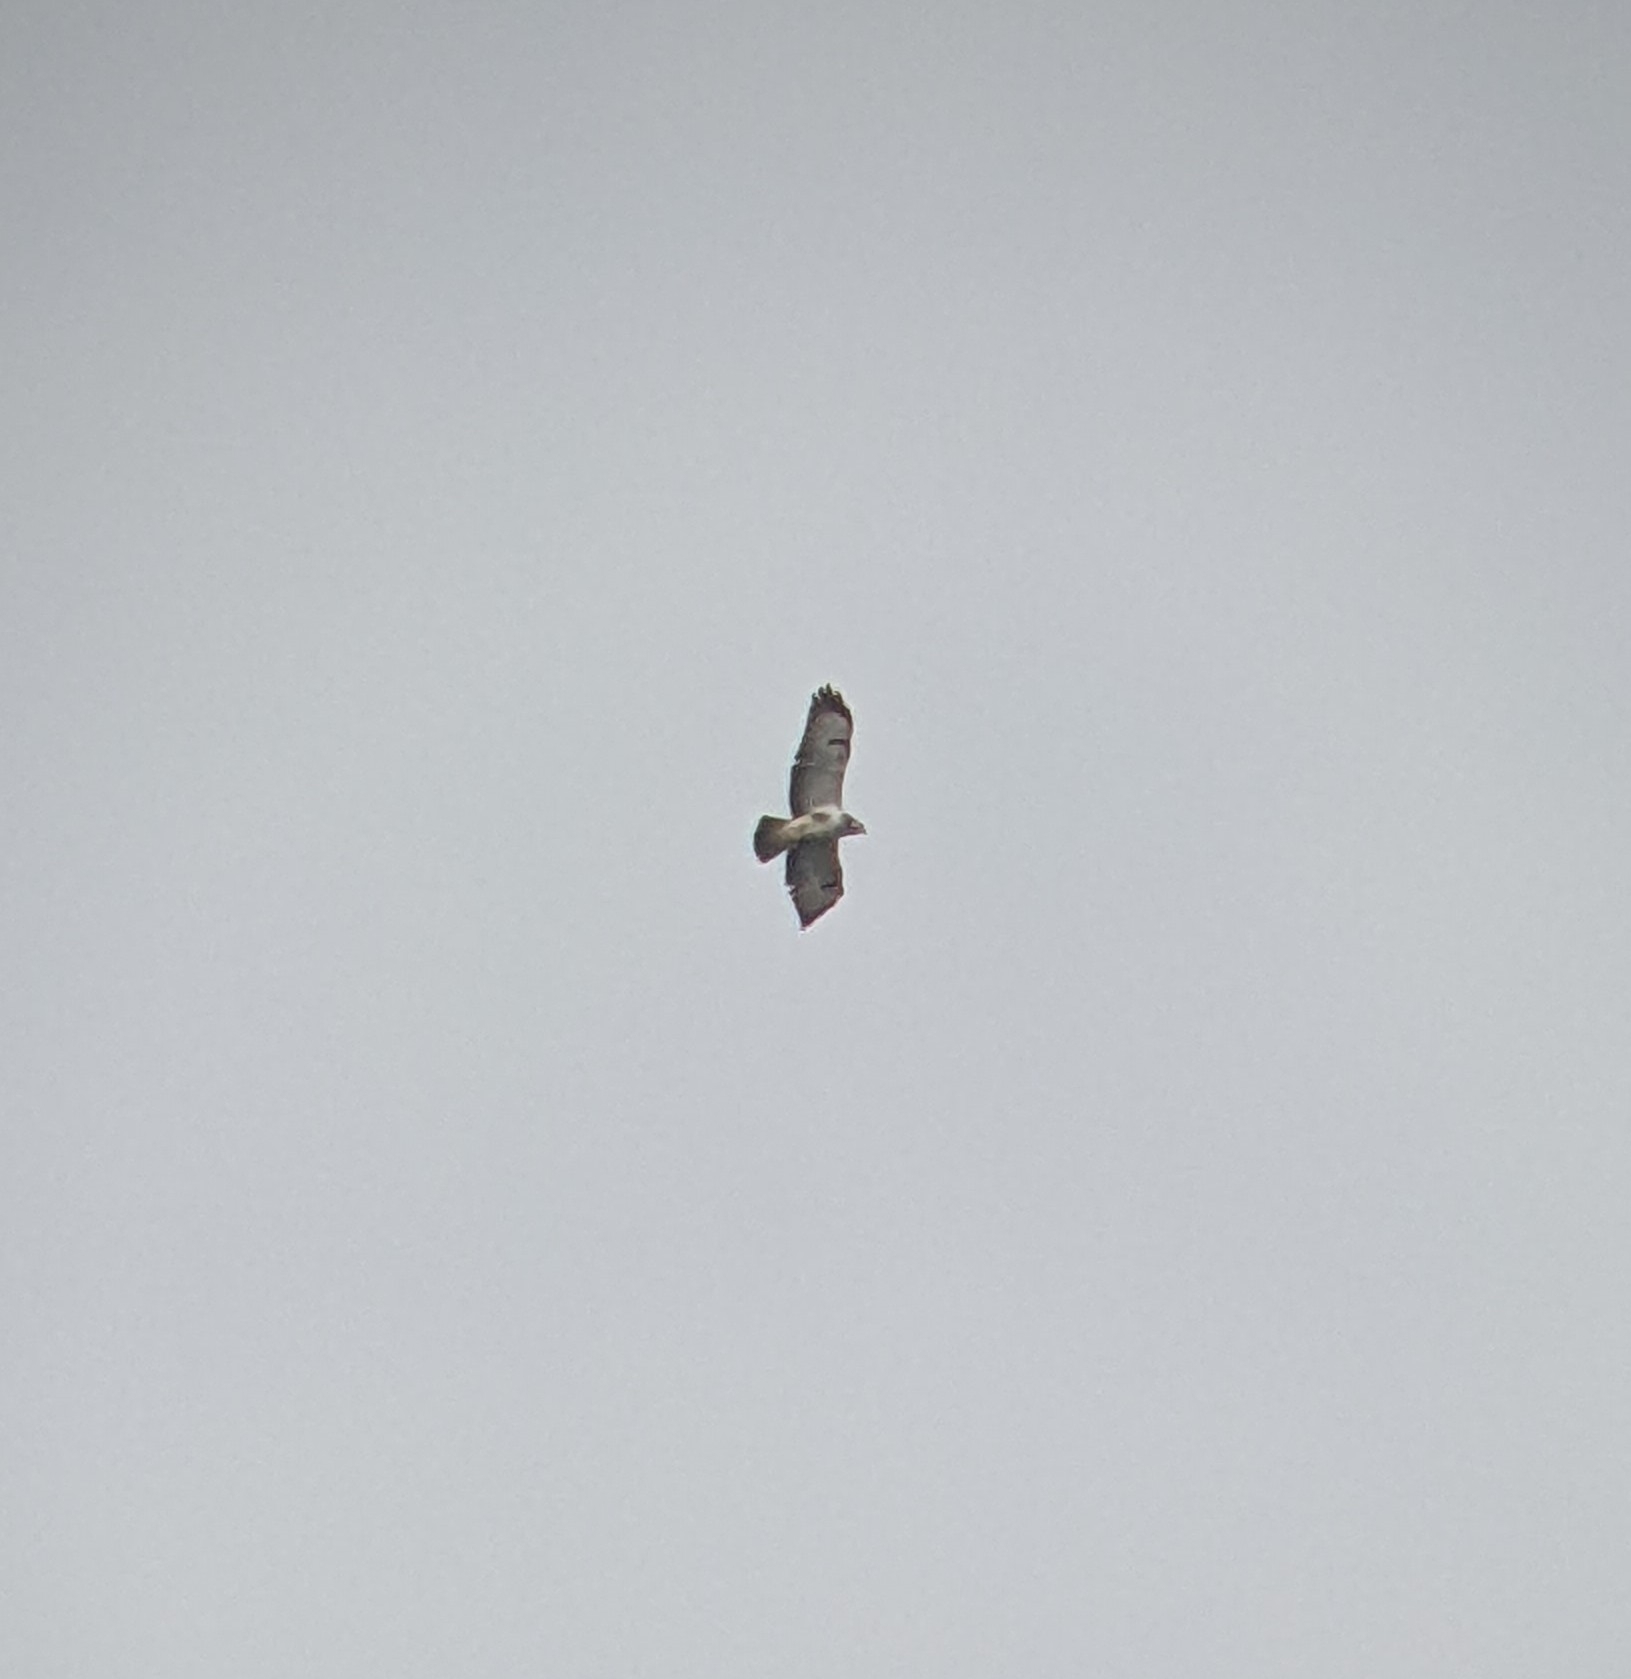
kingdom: Animalia
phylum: Chordata
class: Aves
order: Accipitriformes
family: Accipitridae
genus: Buteo
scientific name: Buteo buteo
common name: Common buzzard
